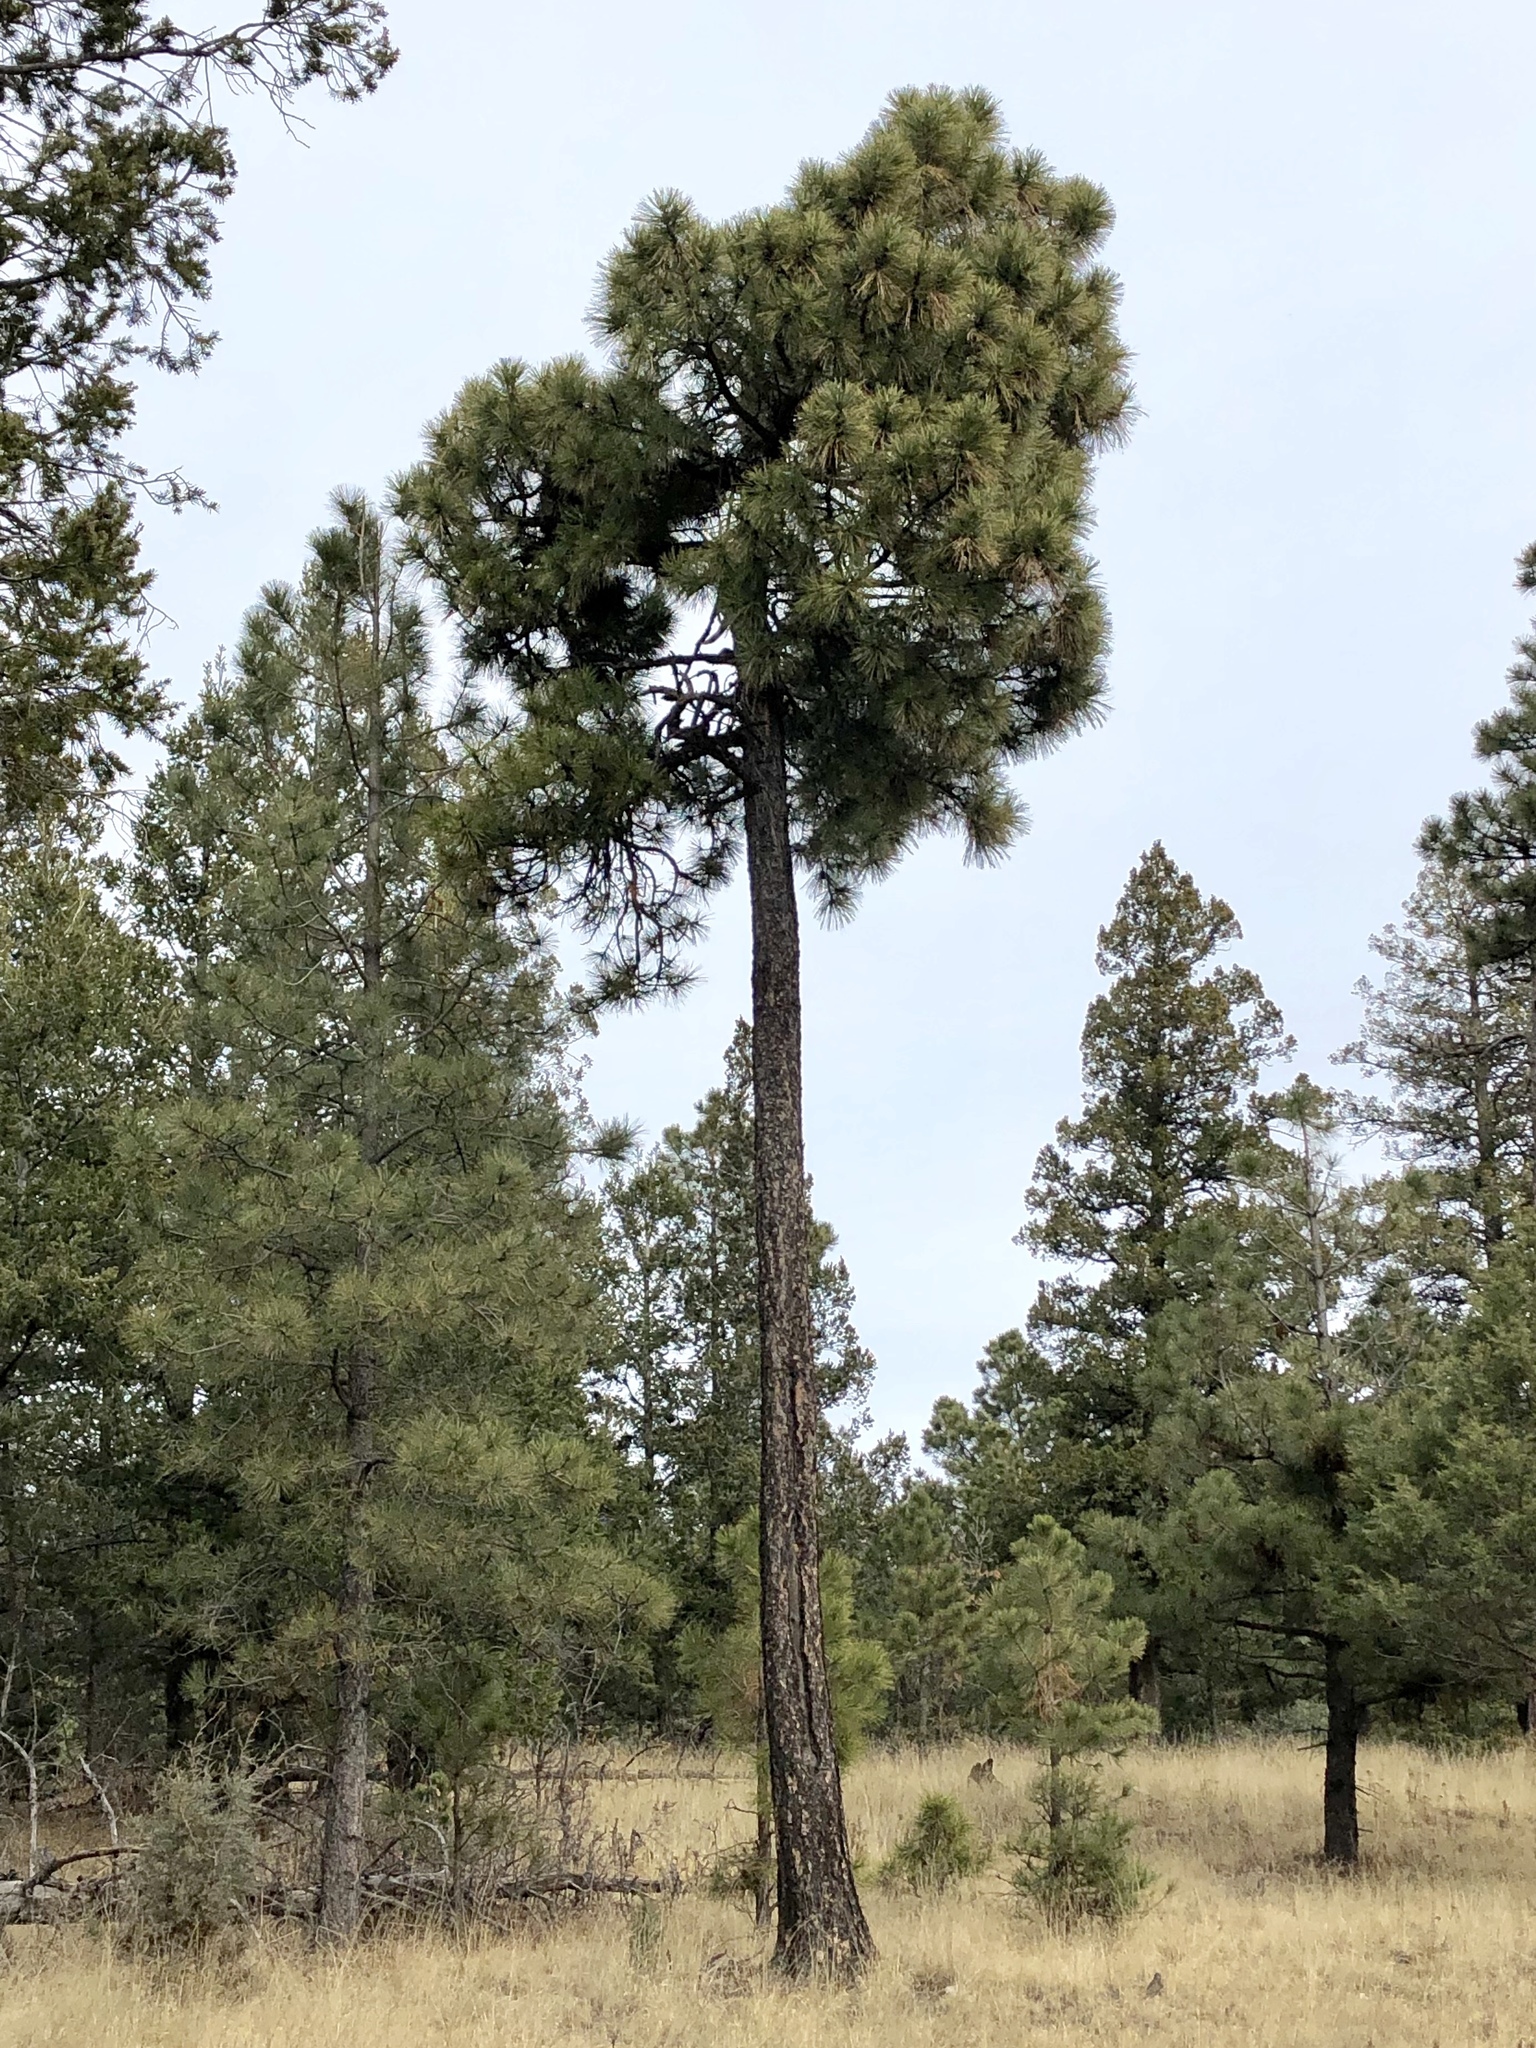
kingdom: Plantae
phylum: Tracheophyta
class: Pinopsida
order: Pinales
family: Pinaceae
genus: Pinus
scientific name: Pinus ponderosa
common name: Western yellow-pine
